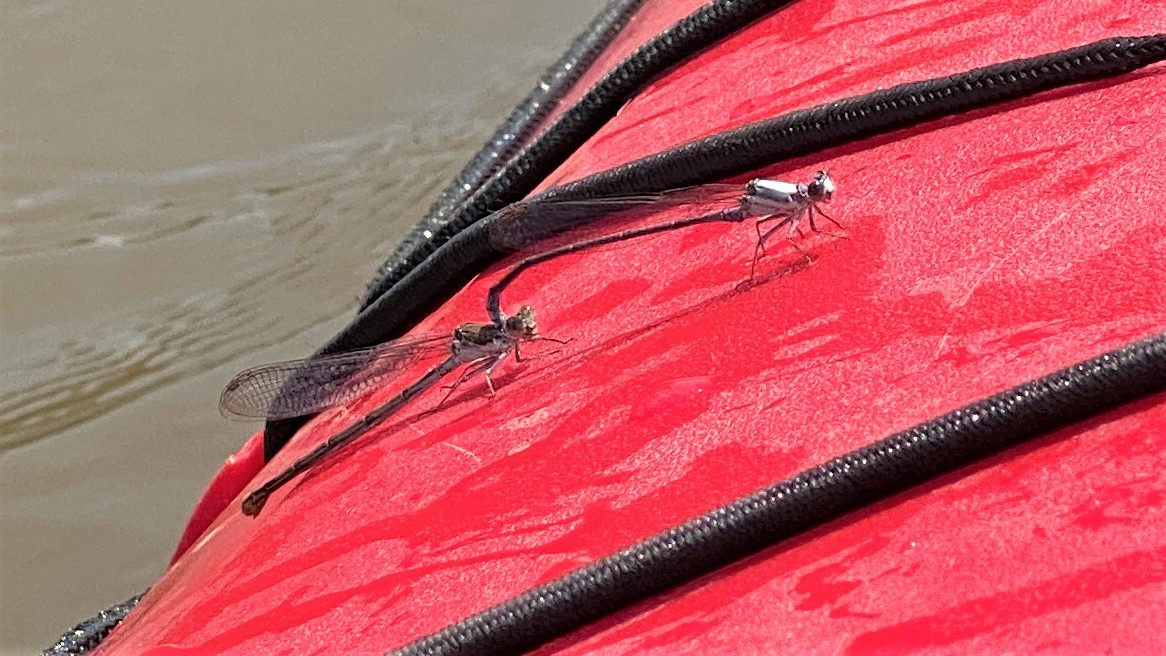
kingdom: Animalia
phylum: Arthropoda
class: Insecta
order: Odonata
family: Coenagrionidae
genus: Argia
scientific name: Argia moesta
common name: Powdered dancer
